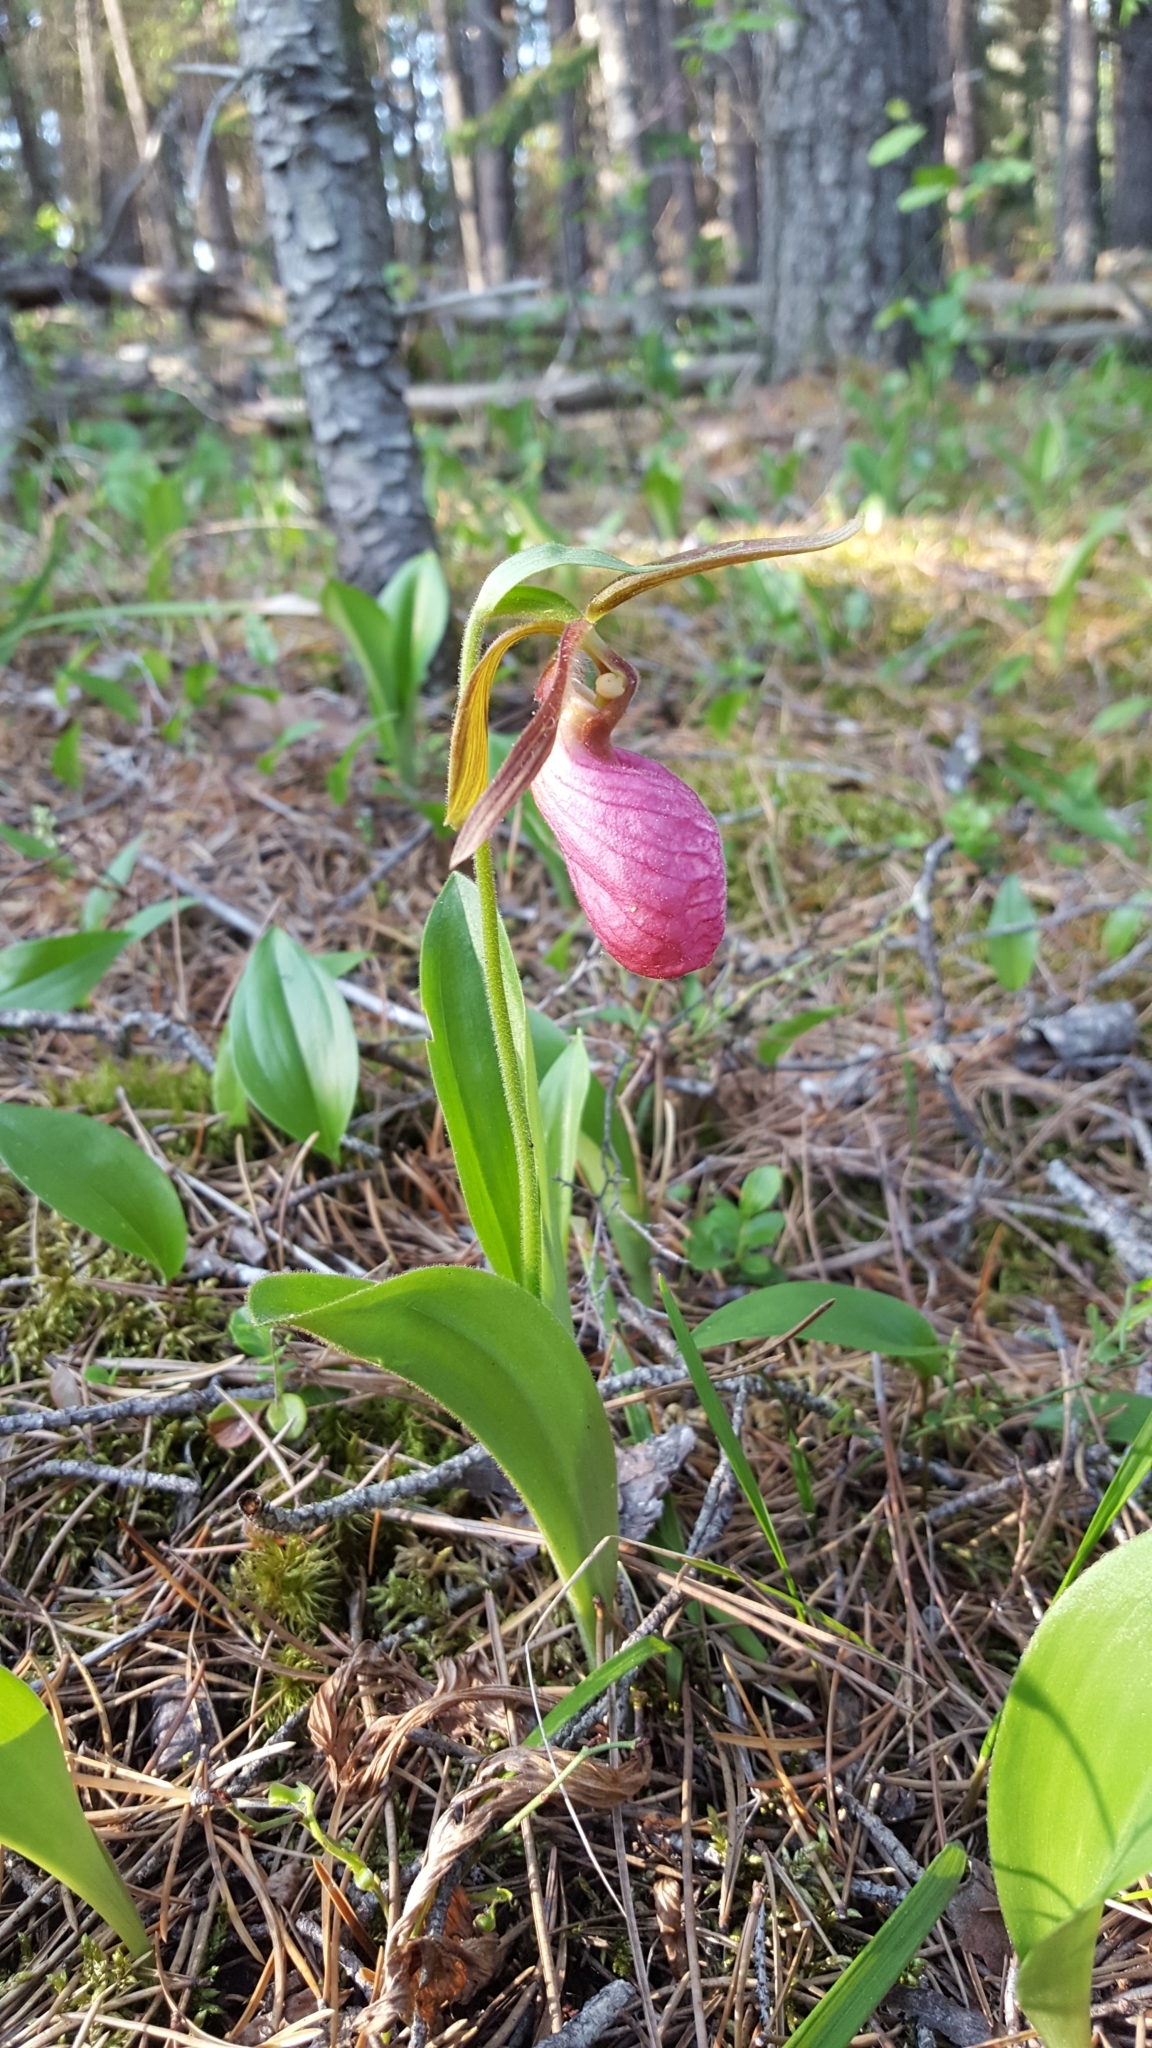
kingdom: Plantae
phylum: Tracheophyta
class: Liliopsida
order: Asparagales
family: Orchidaceae
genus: Cypripedium
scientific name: Cypripedium acaule
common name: Pink lady's-slipper
